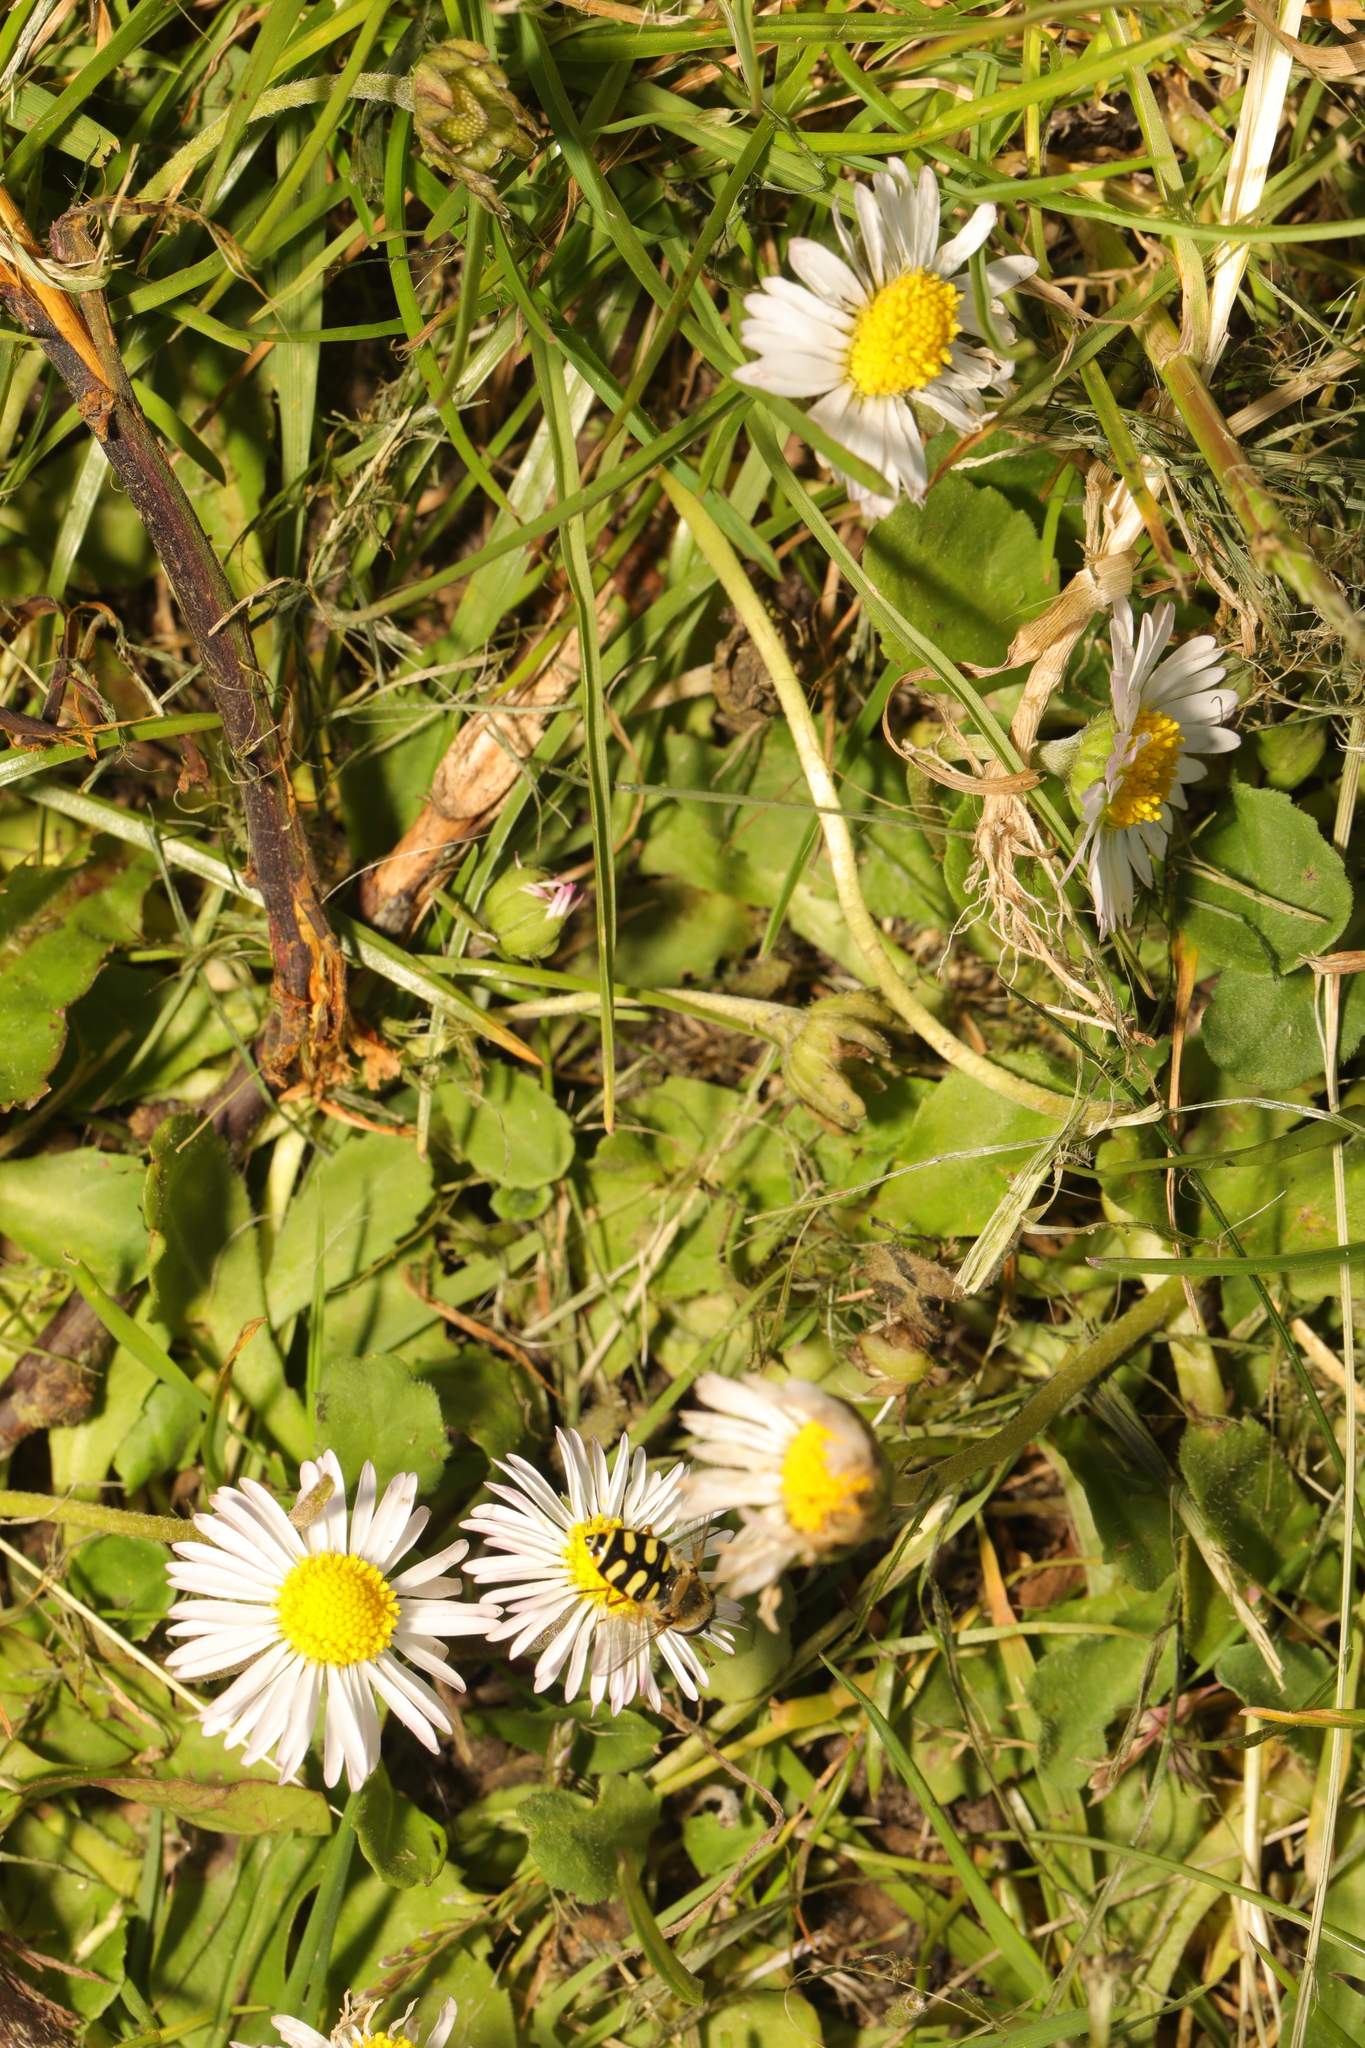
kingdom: Plantae
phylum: Tracheophyta
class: Magnoliopsida
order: Asterales
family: Asteraceae
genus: Bellis
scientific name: Bellis perennis
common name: Lawndaisy
